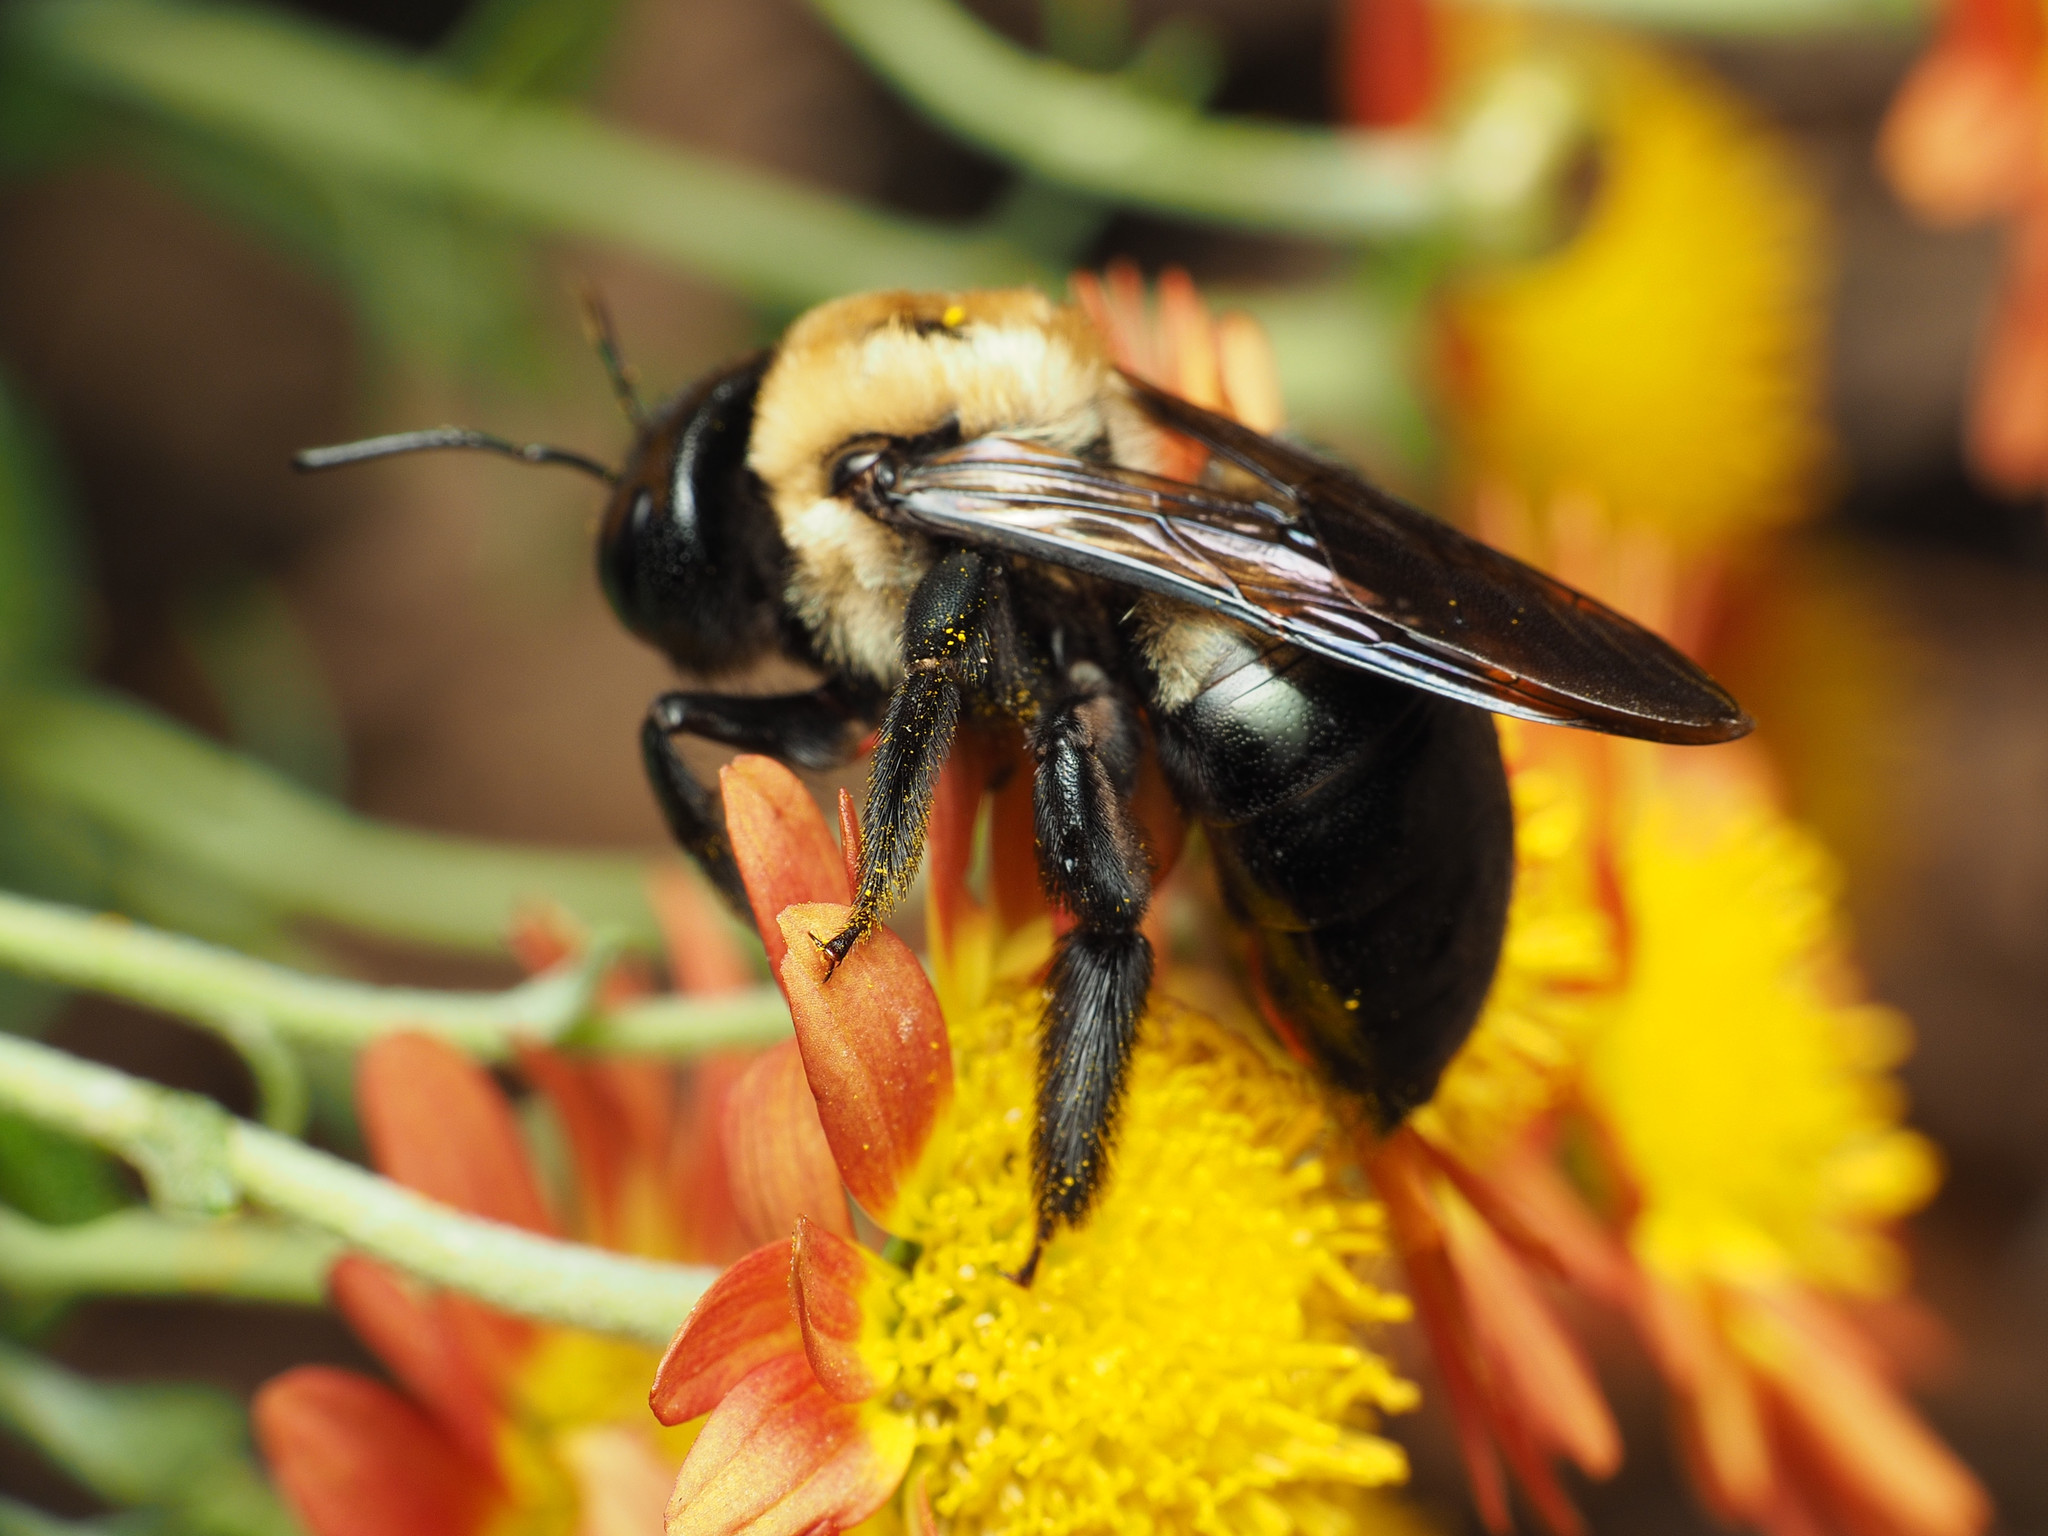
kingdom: Animalia
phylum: Arthropoda
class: Insecta
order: Hymenoptera
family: Apidae
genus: Xylocopa
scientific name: Xylocopa virginica
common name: Carpenter bee
